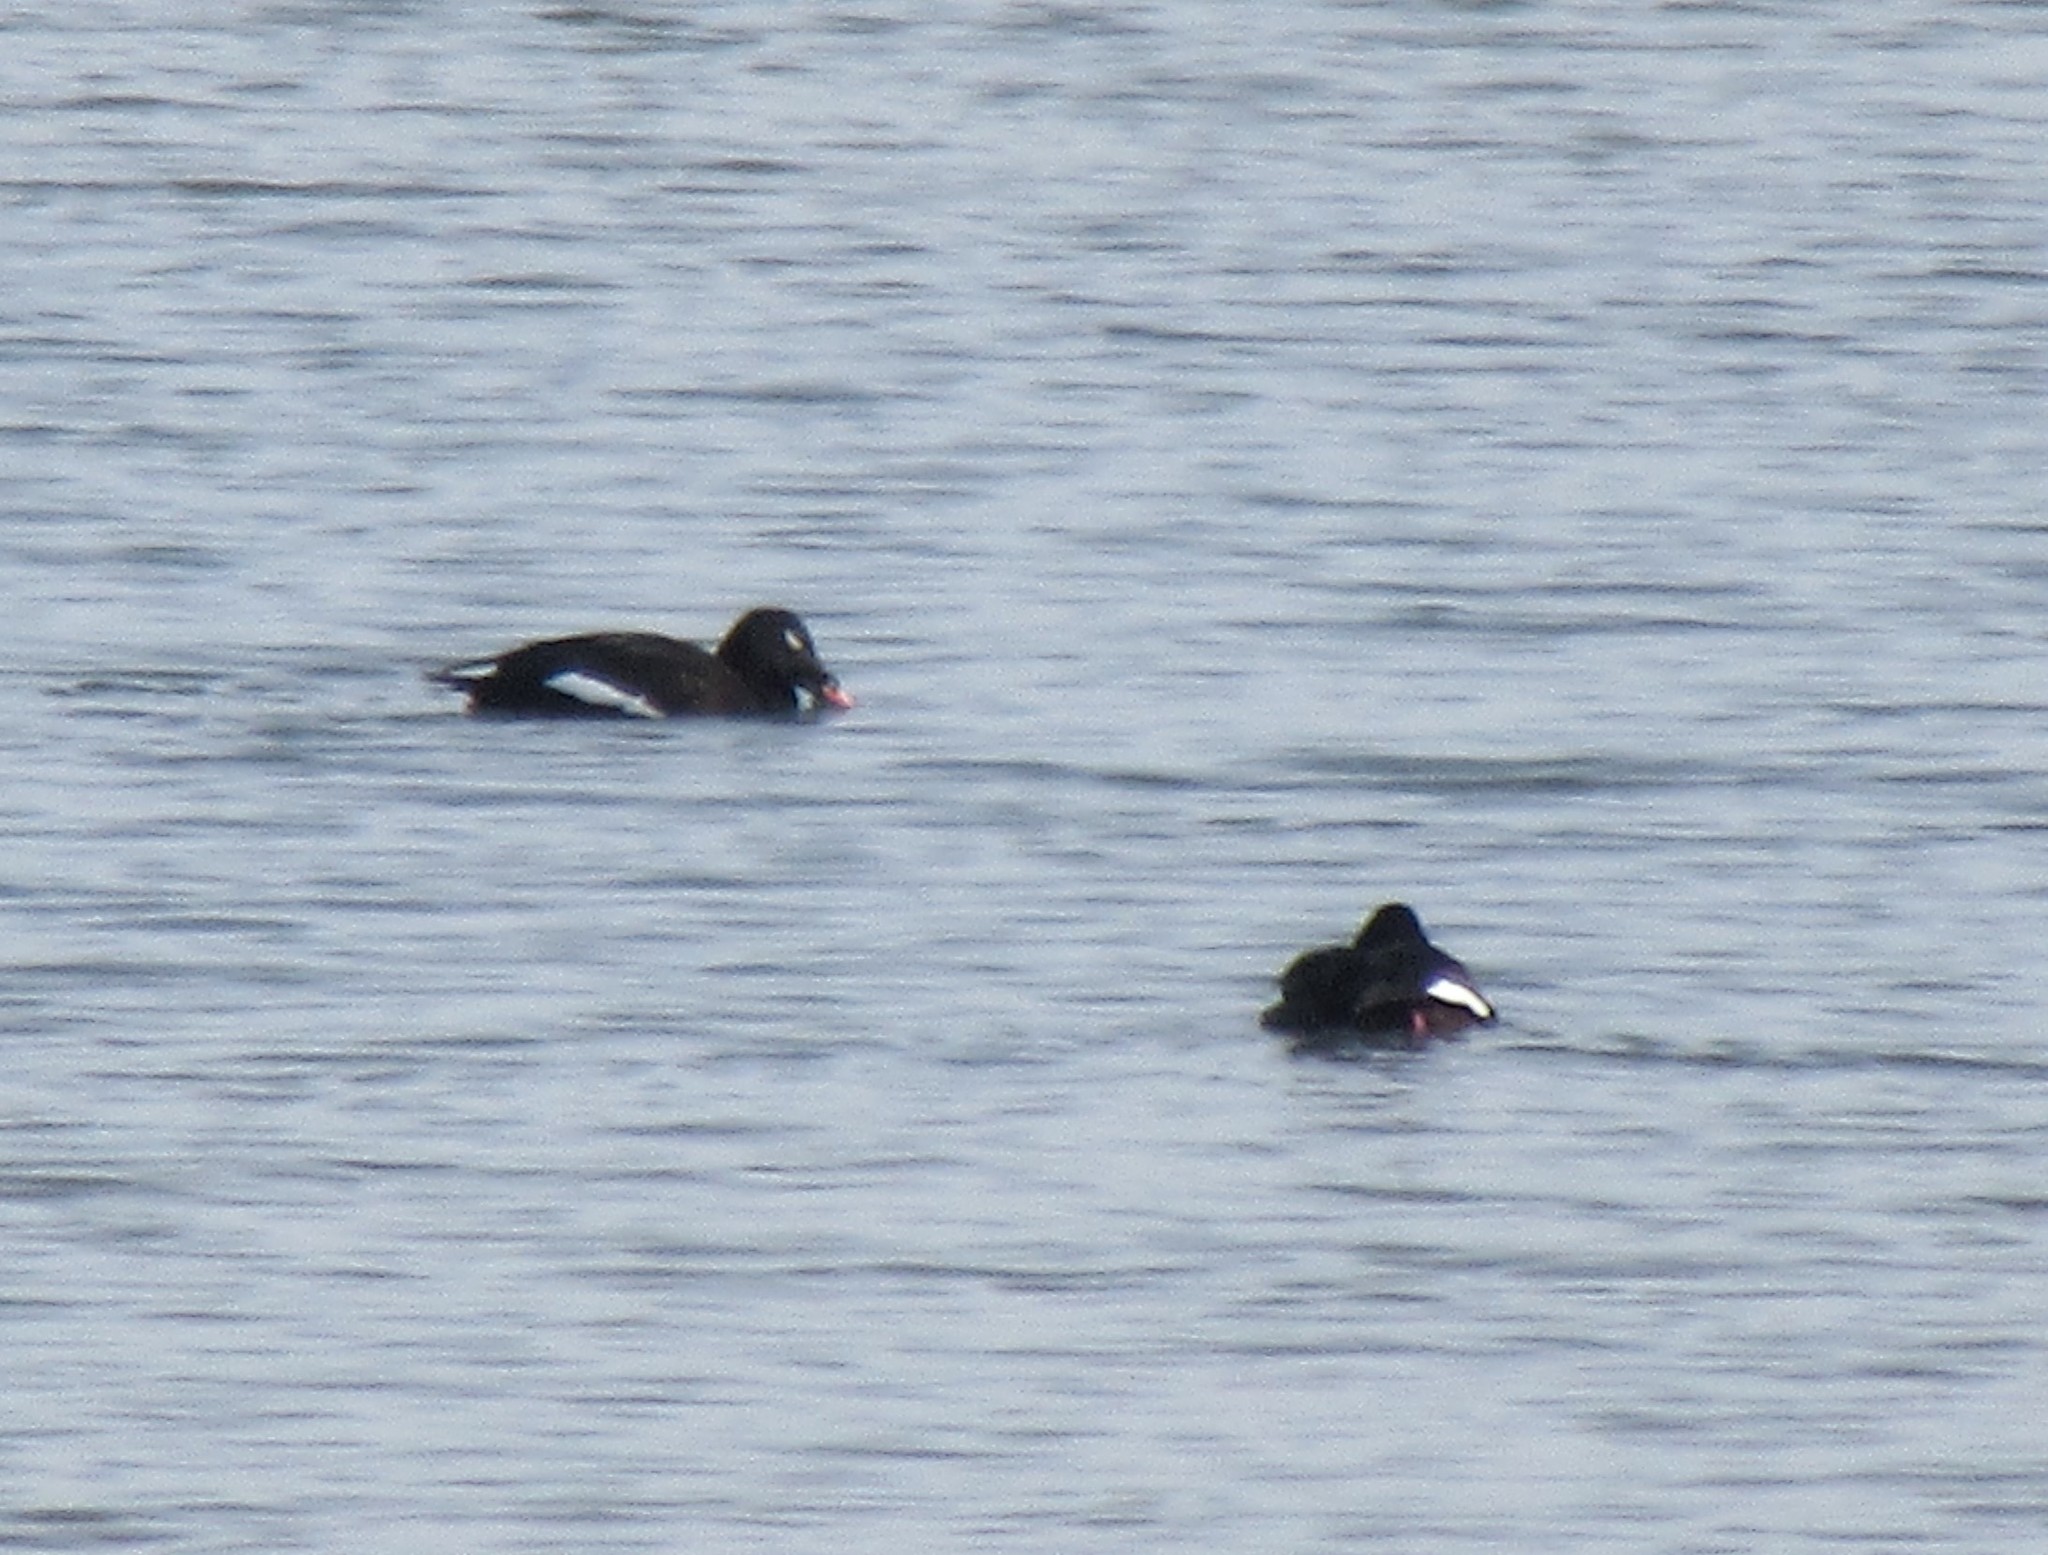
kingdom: Animalia
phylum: Chordata
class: Aves
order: Anseriformes
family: Anatidae
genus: Melanitta
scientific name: Melanitta deglandi
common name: White-winged scoter
